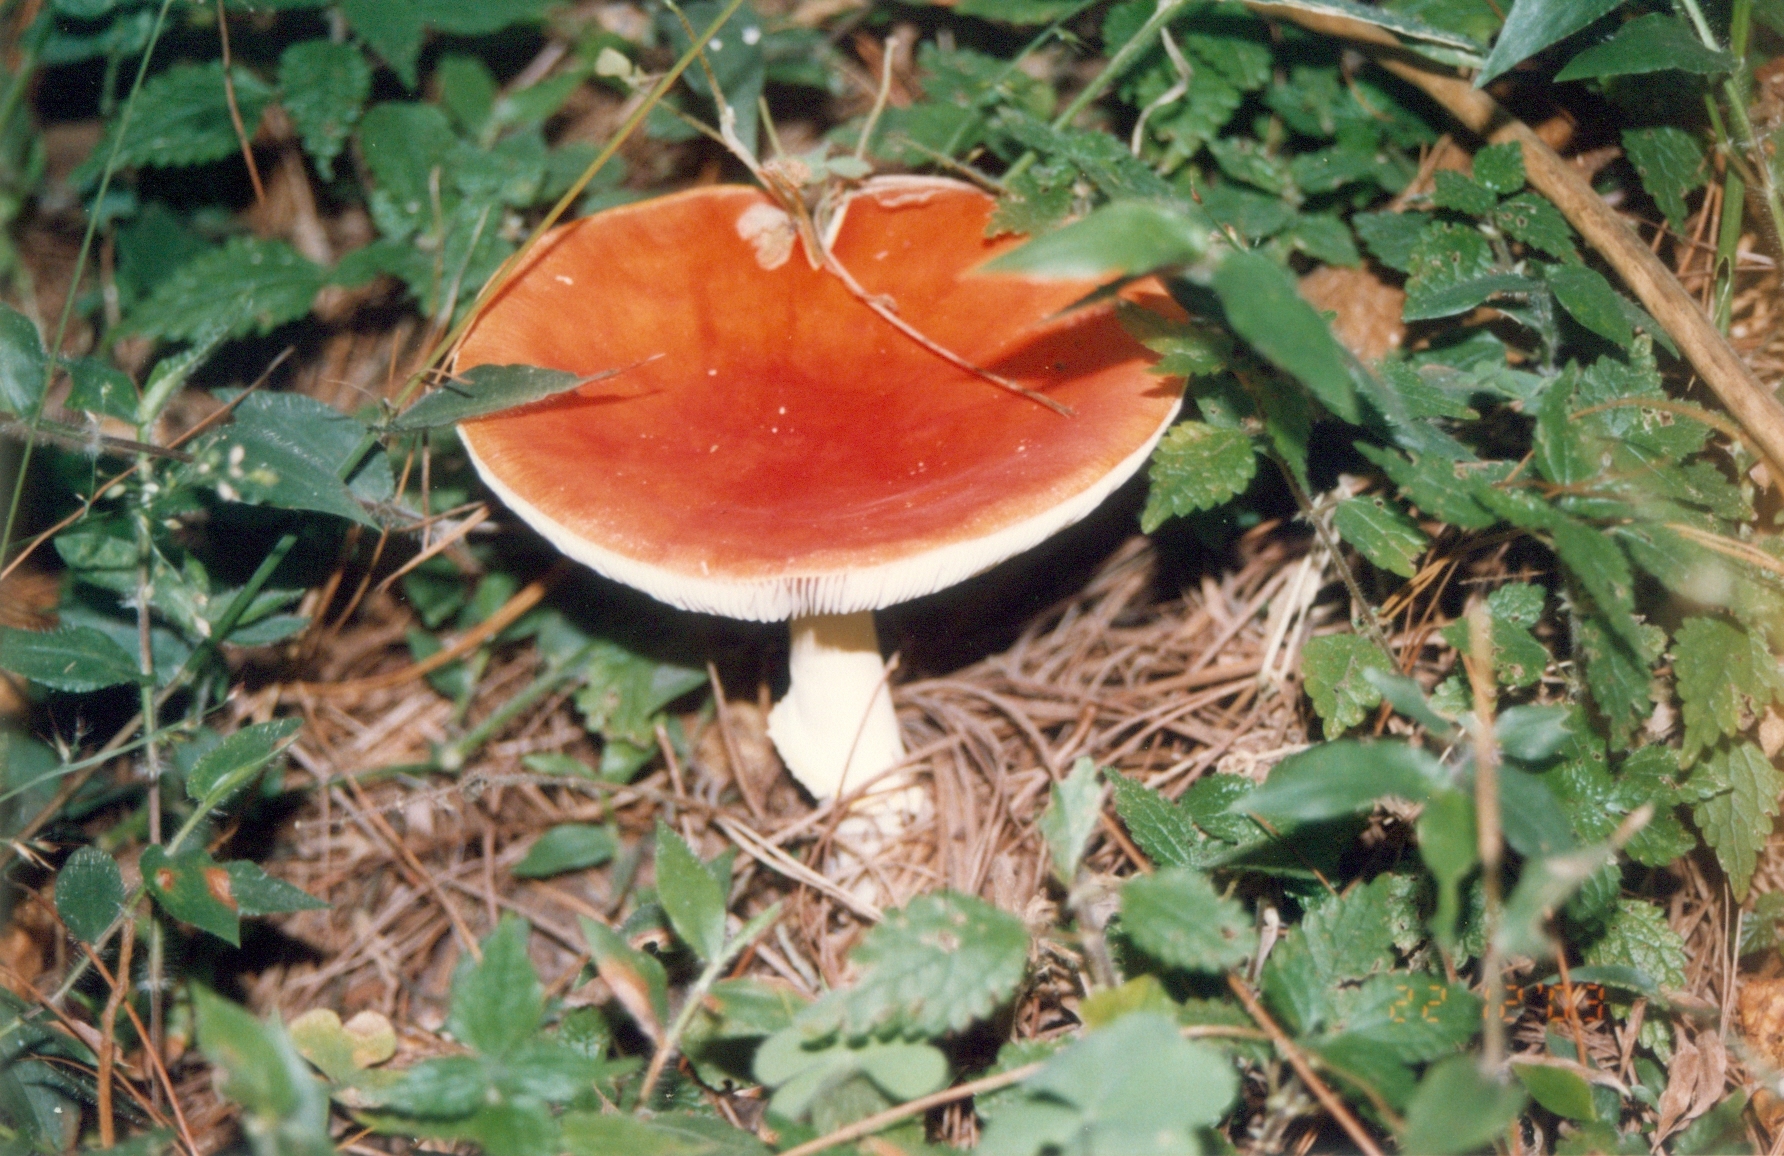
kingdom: Fungi
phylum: Basidiomycota
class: Agaricomycetes
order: Agaricales
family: Amanitaceae
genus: Amanita
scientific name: Amanita muscaria
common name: Fly agaric
